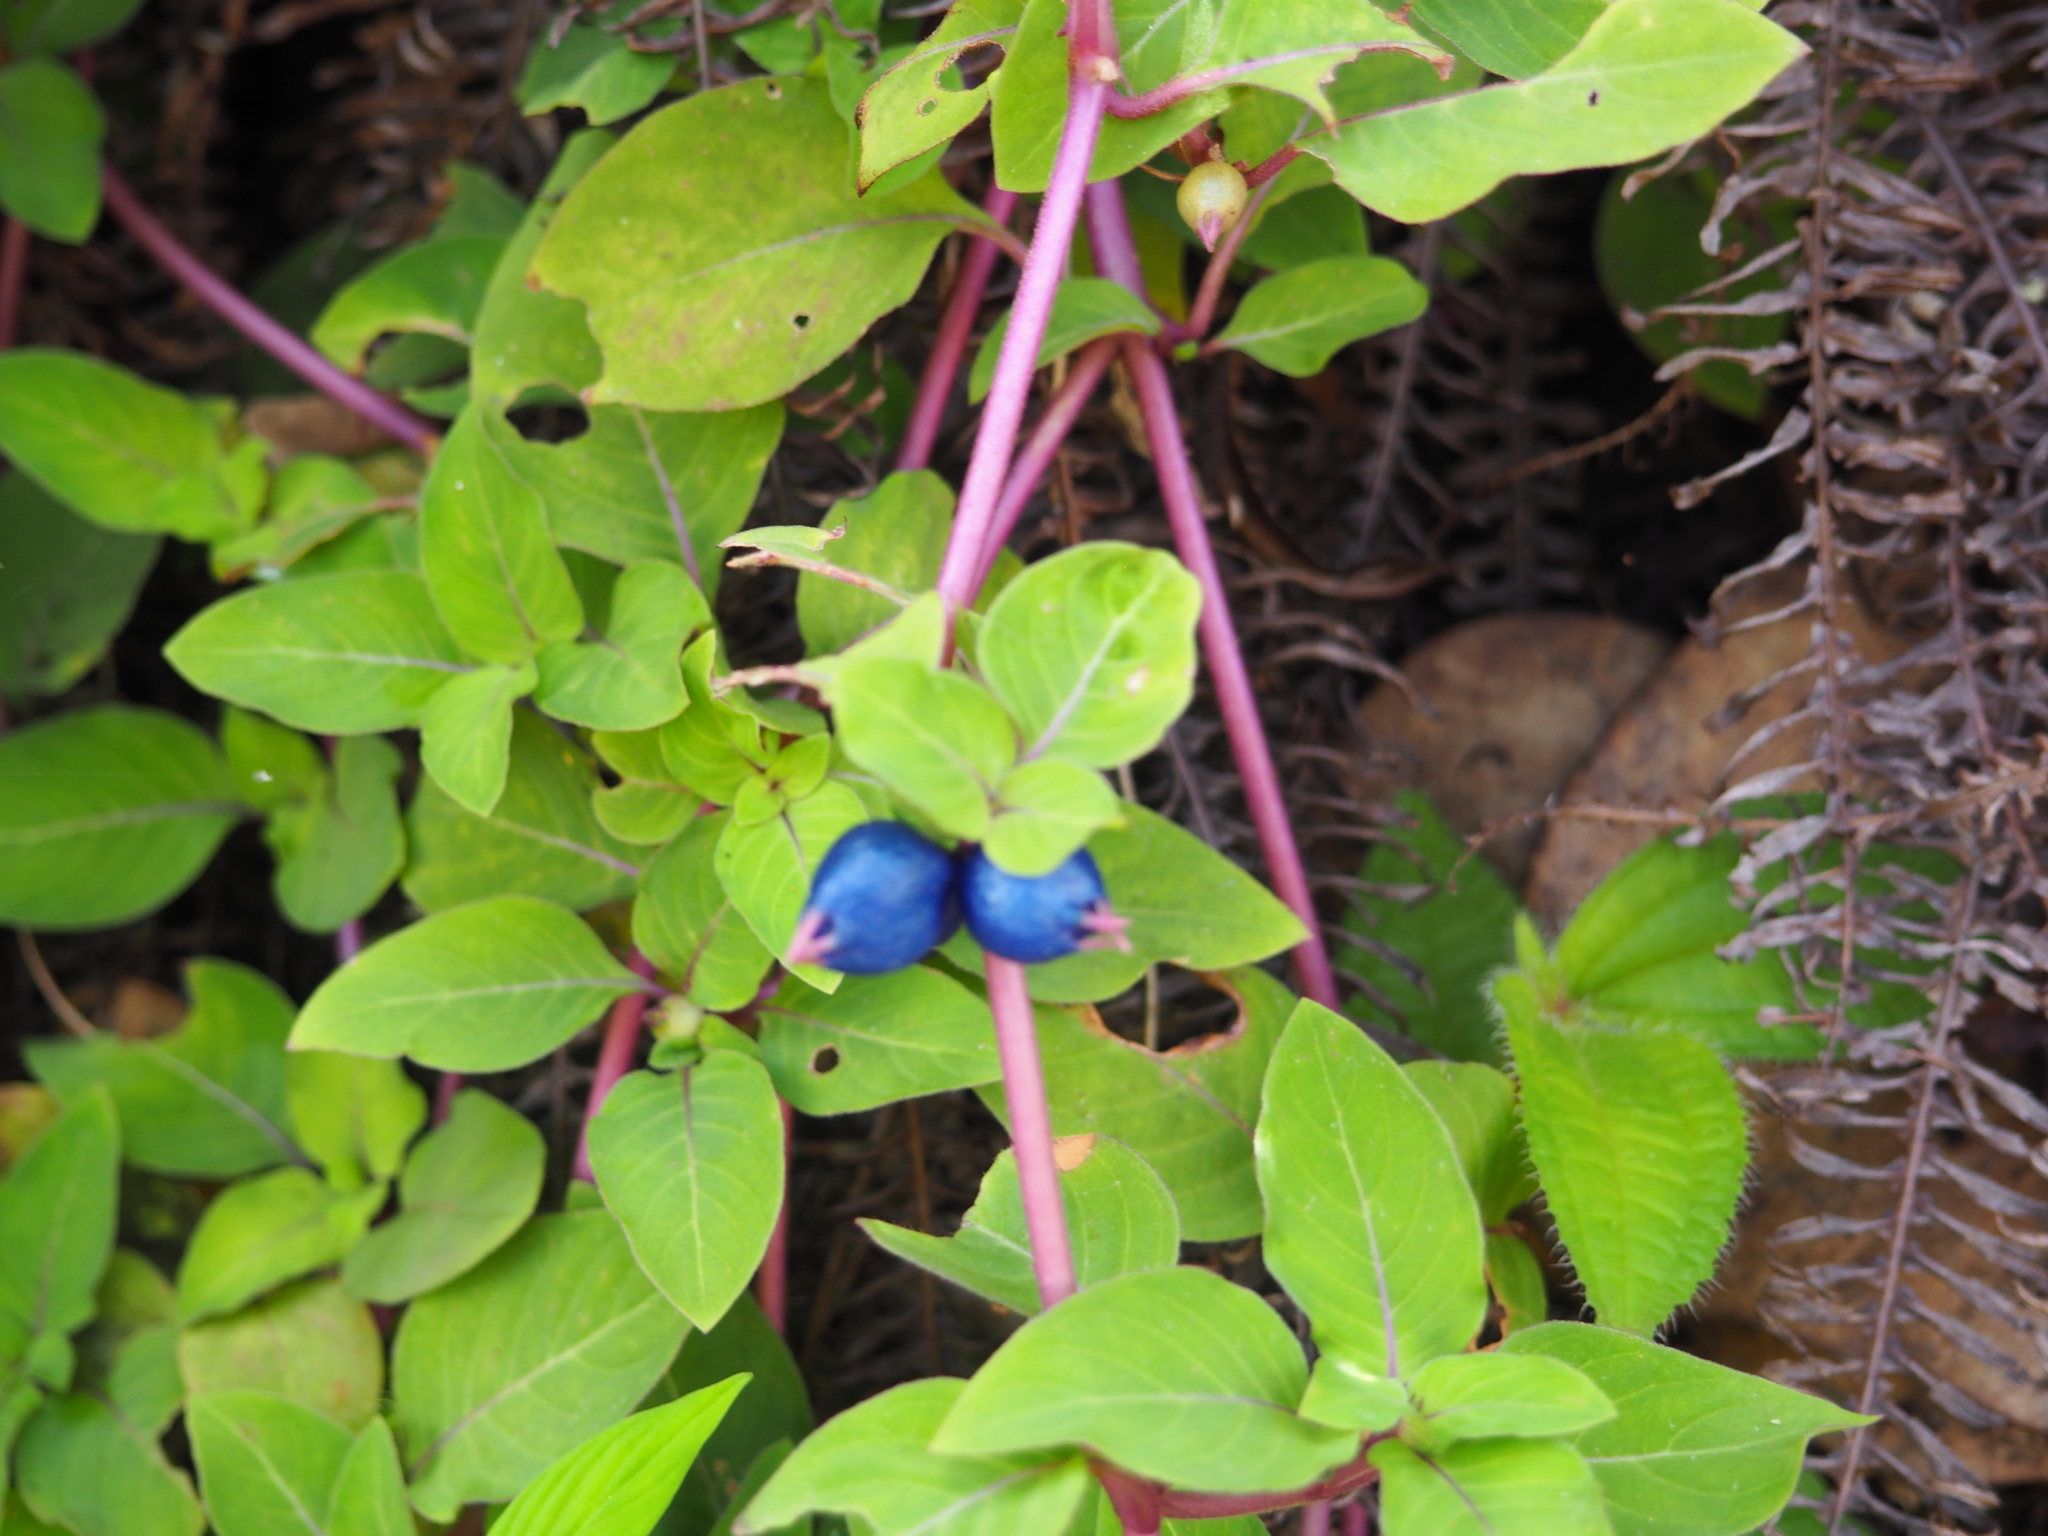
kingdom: Plantae
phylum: Tracheophyta
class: Magnoliopsida
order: Gentianales
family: Rubiaceae
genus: Coccocypselum
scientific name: Coccocypselum herbaceum
